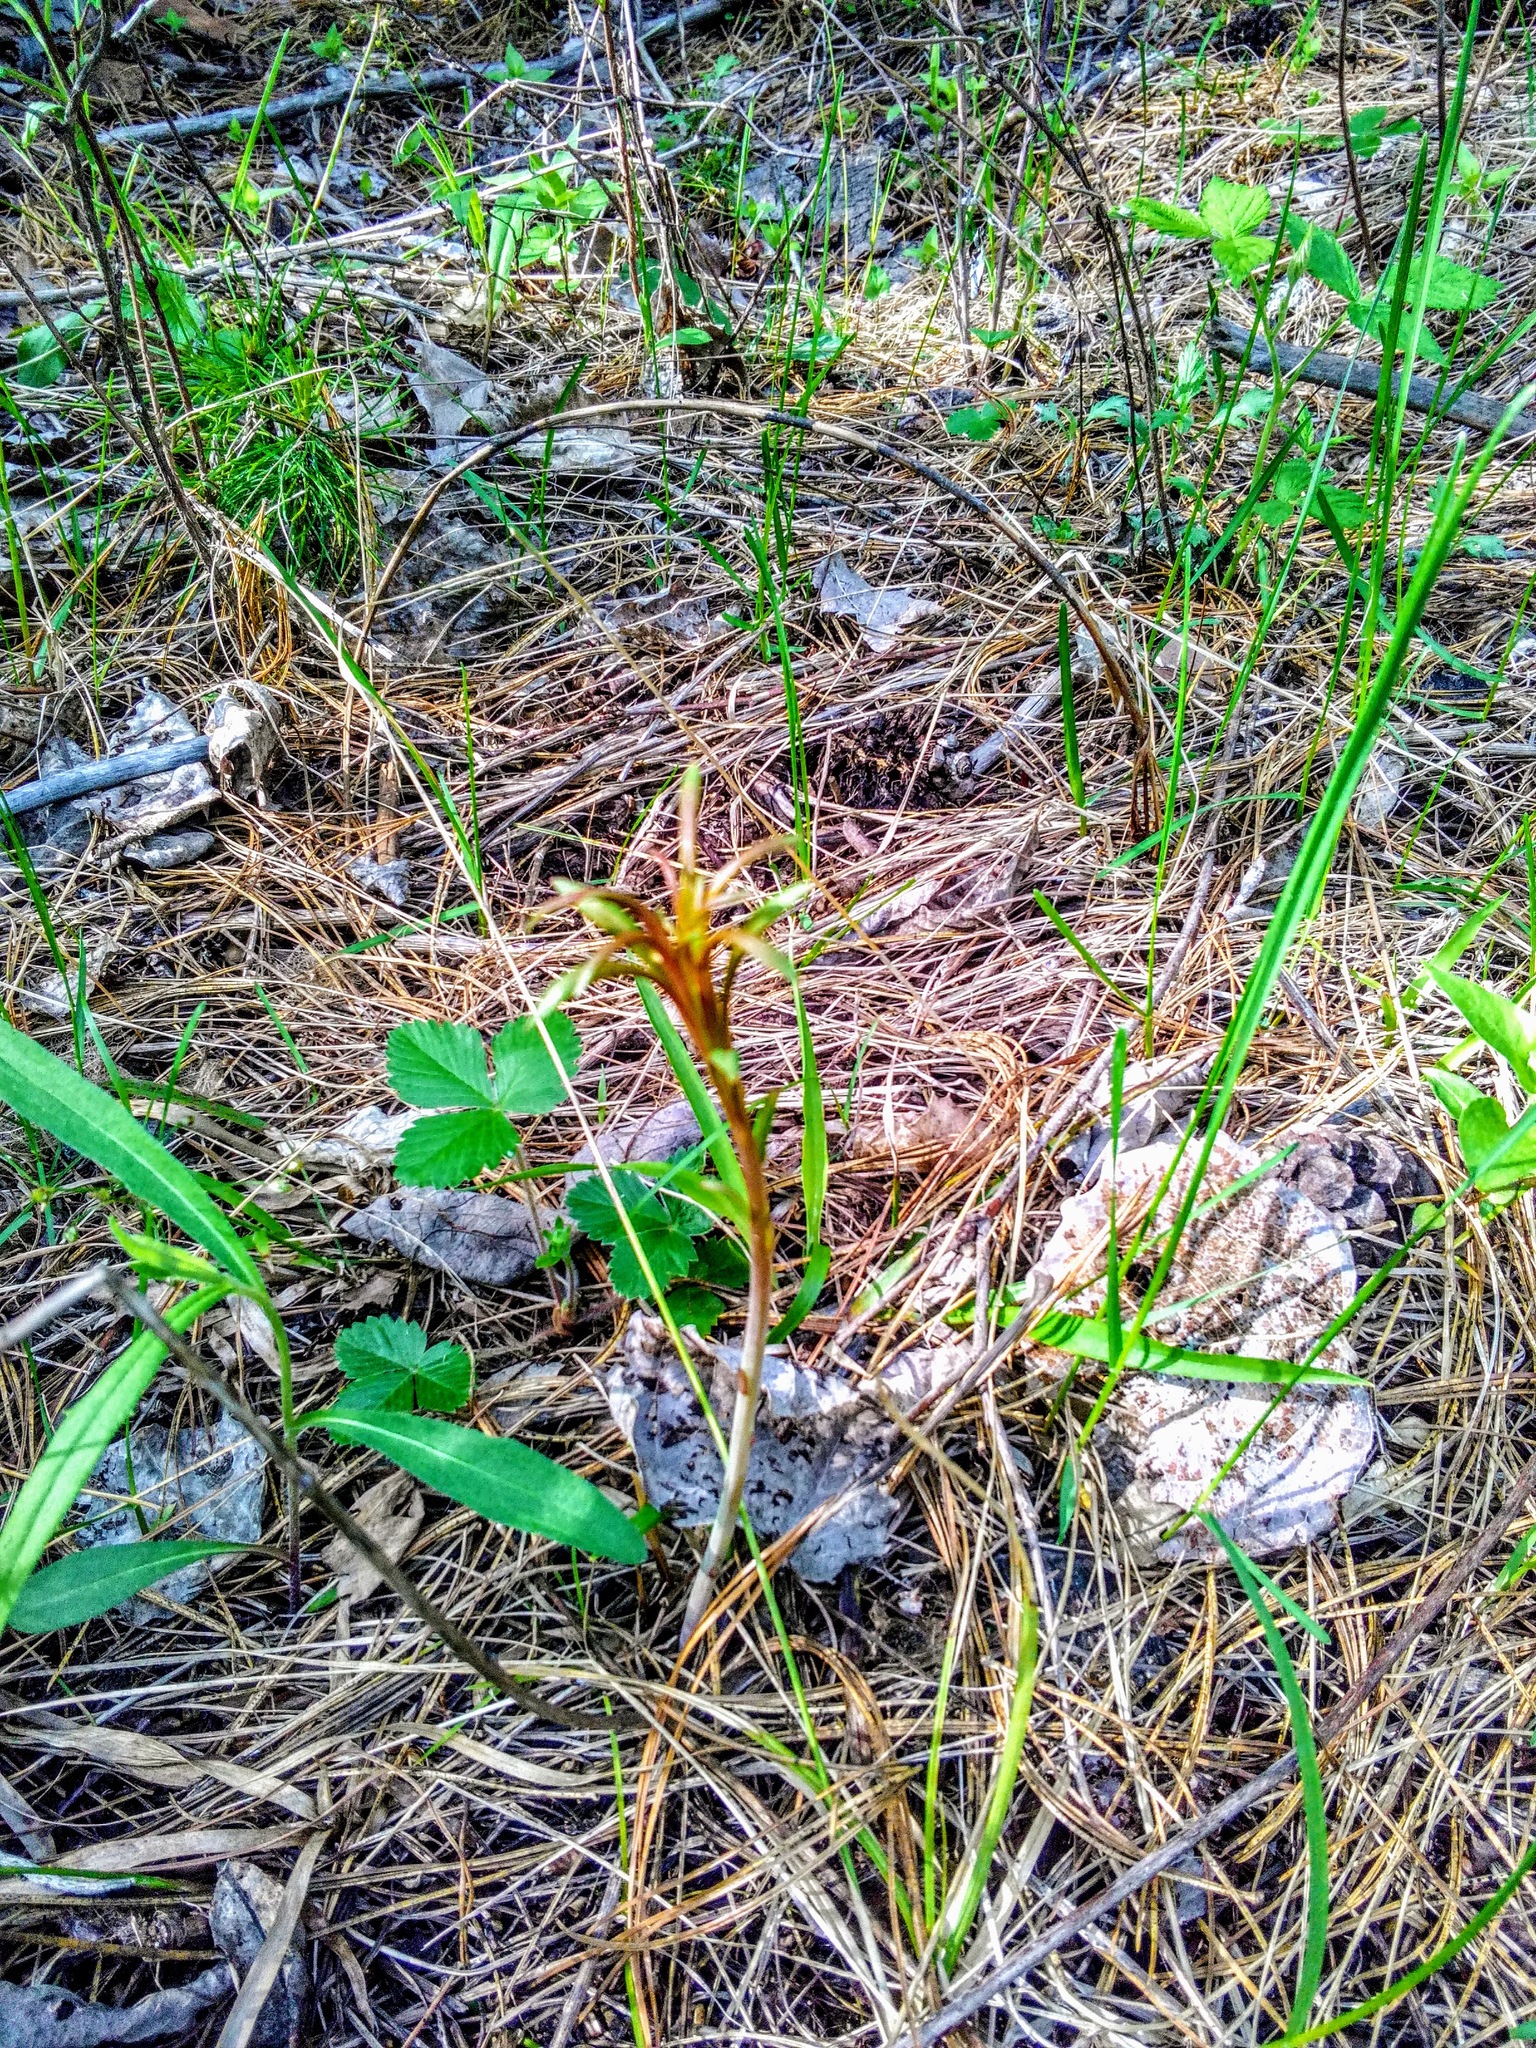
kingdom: Plantae
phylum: Tracheophyta
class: Magnoliopsida
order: Myrtales
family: Onagraceae
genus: Chamaenerion
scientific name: Chamaenerion angustifolium
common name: Fireweed
